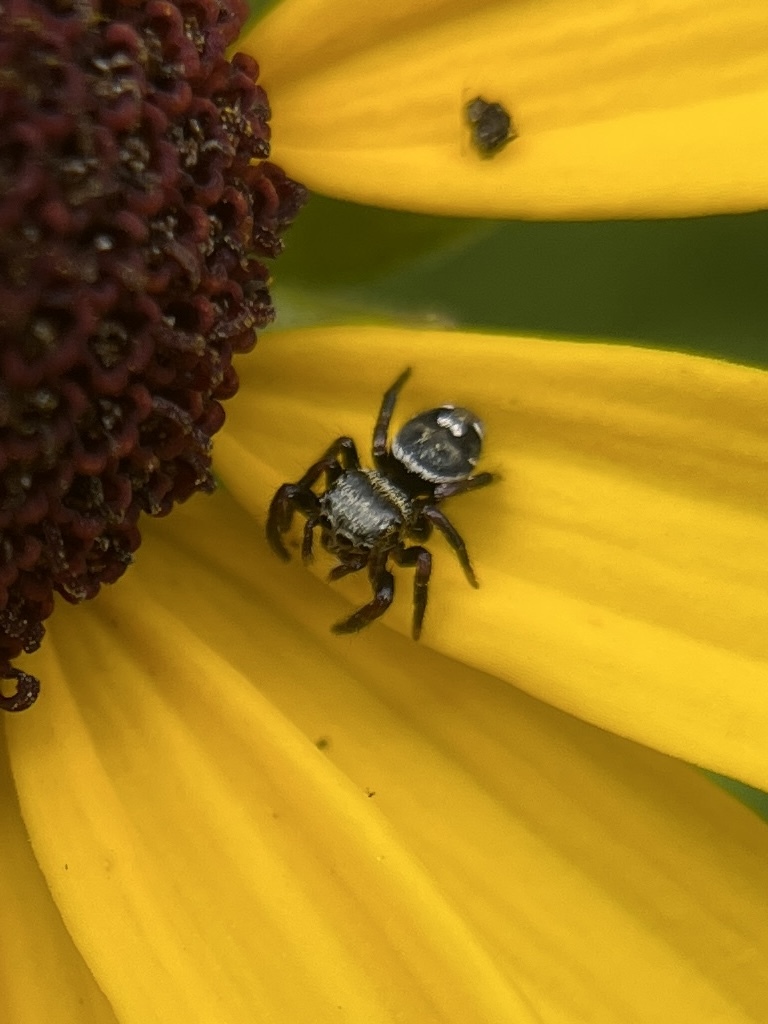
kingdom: Animalia
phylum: Arthropoda
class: Arachnida
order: Araneae
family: Salticidae
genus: Phidippus
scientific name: Phidippus audax
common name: Bold jumper
